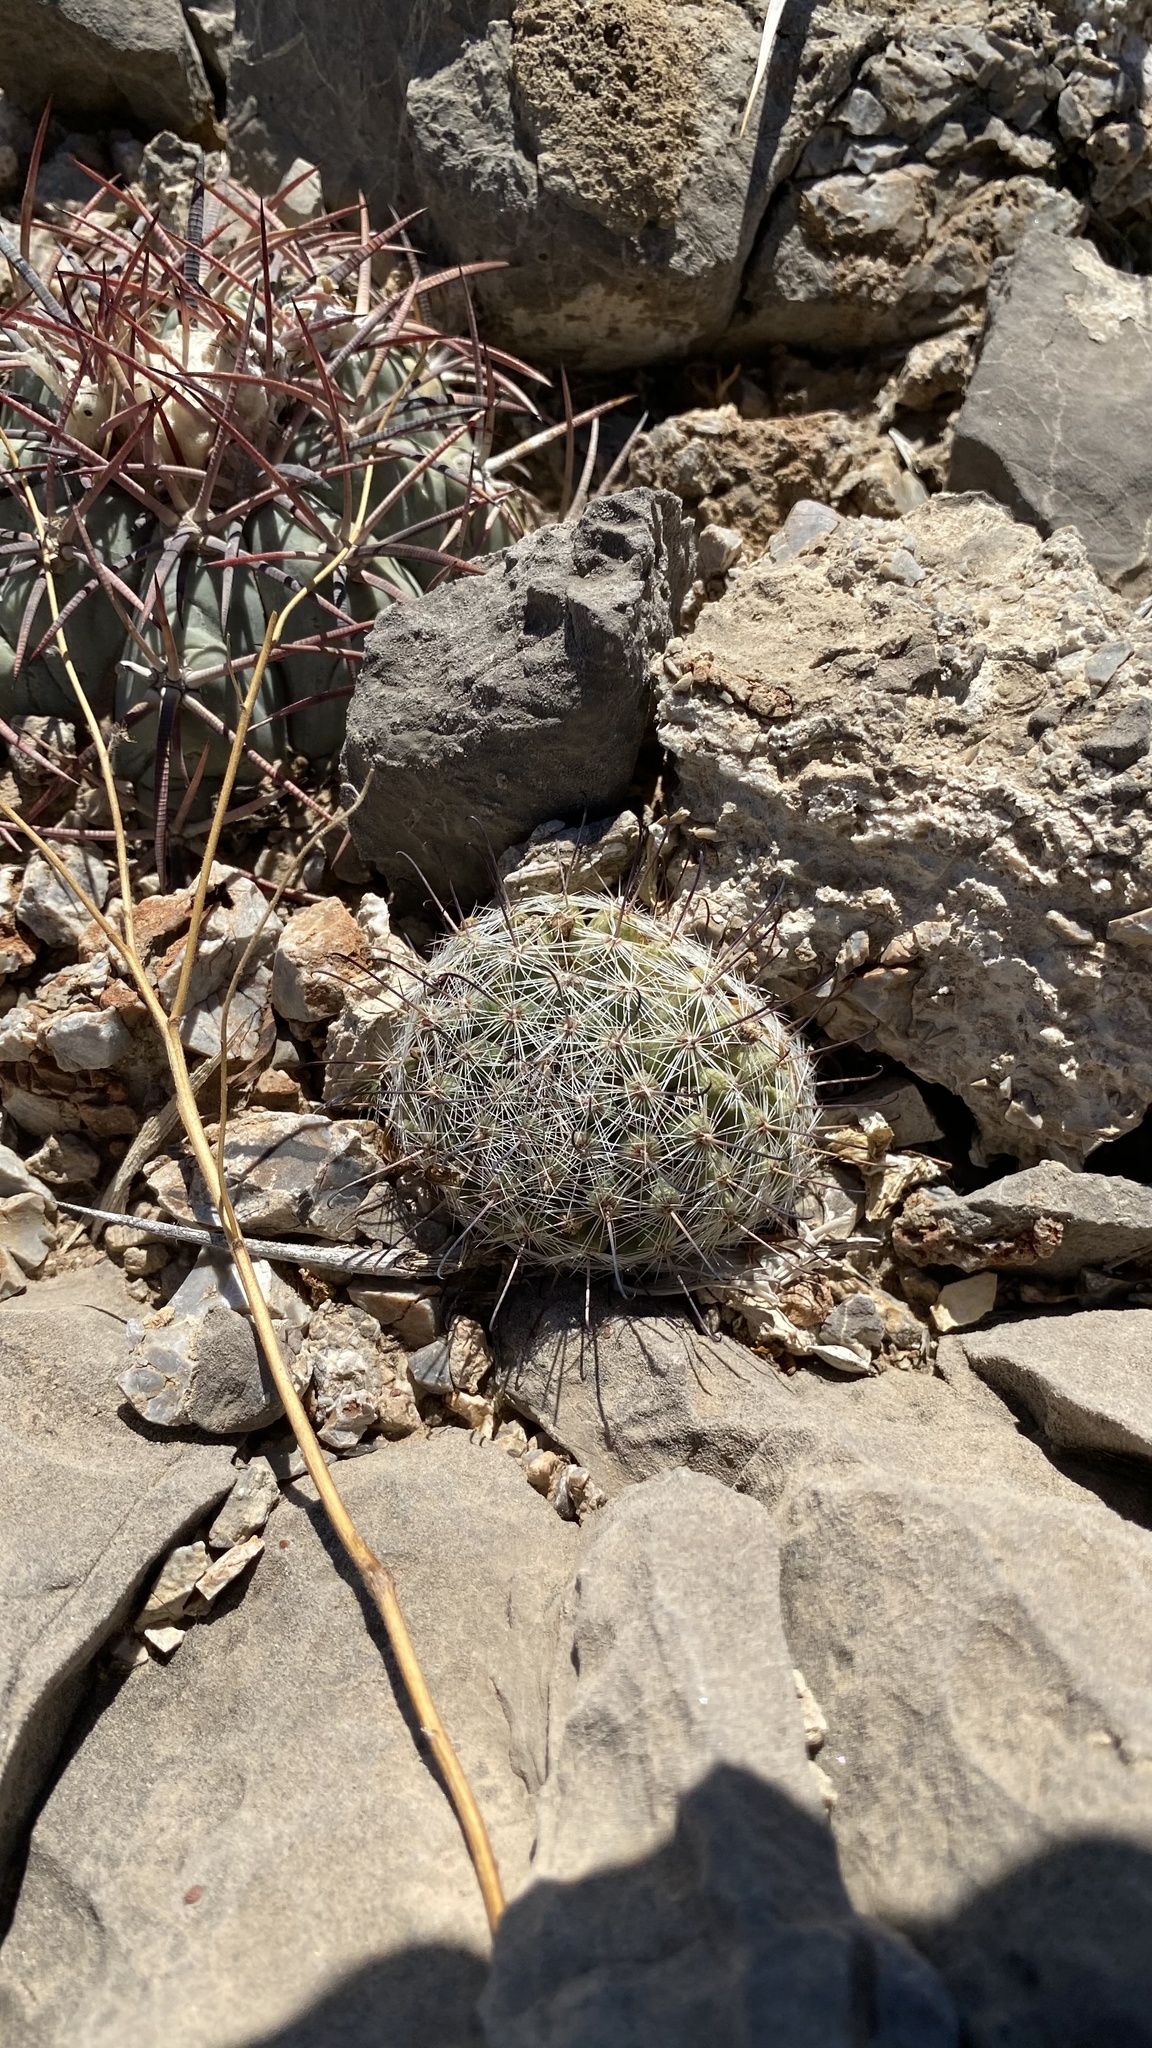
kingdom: Plantae
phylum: Tracheophyta
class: Magnoliopsida
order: Caryophyllales
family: Cactaceae
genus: Cochemiea
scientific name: Cochemiea grahamii
